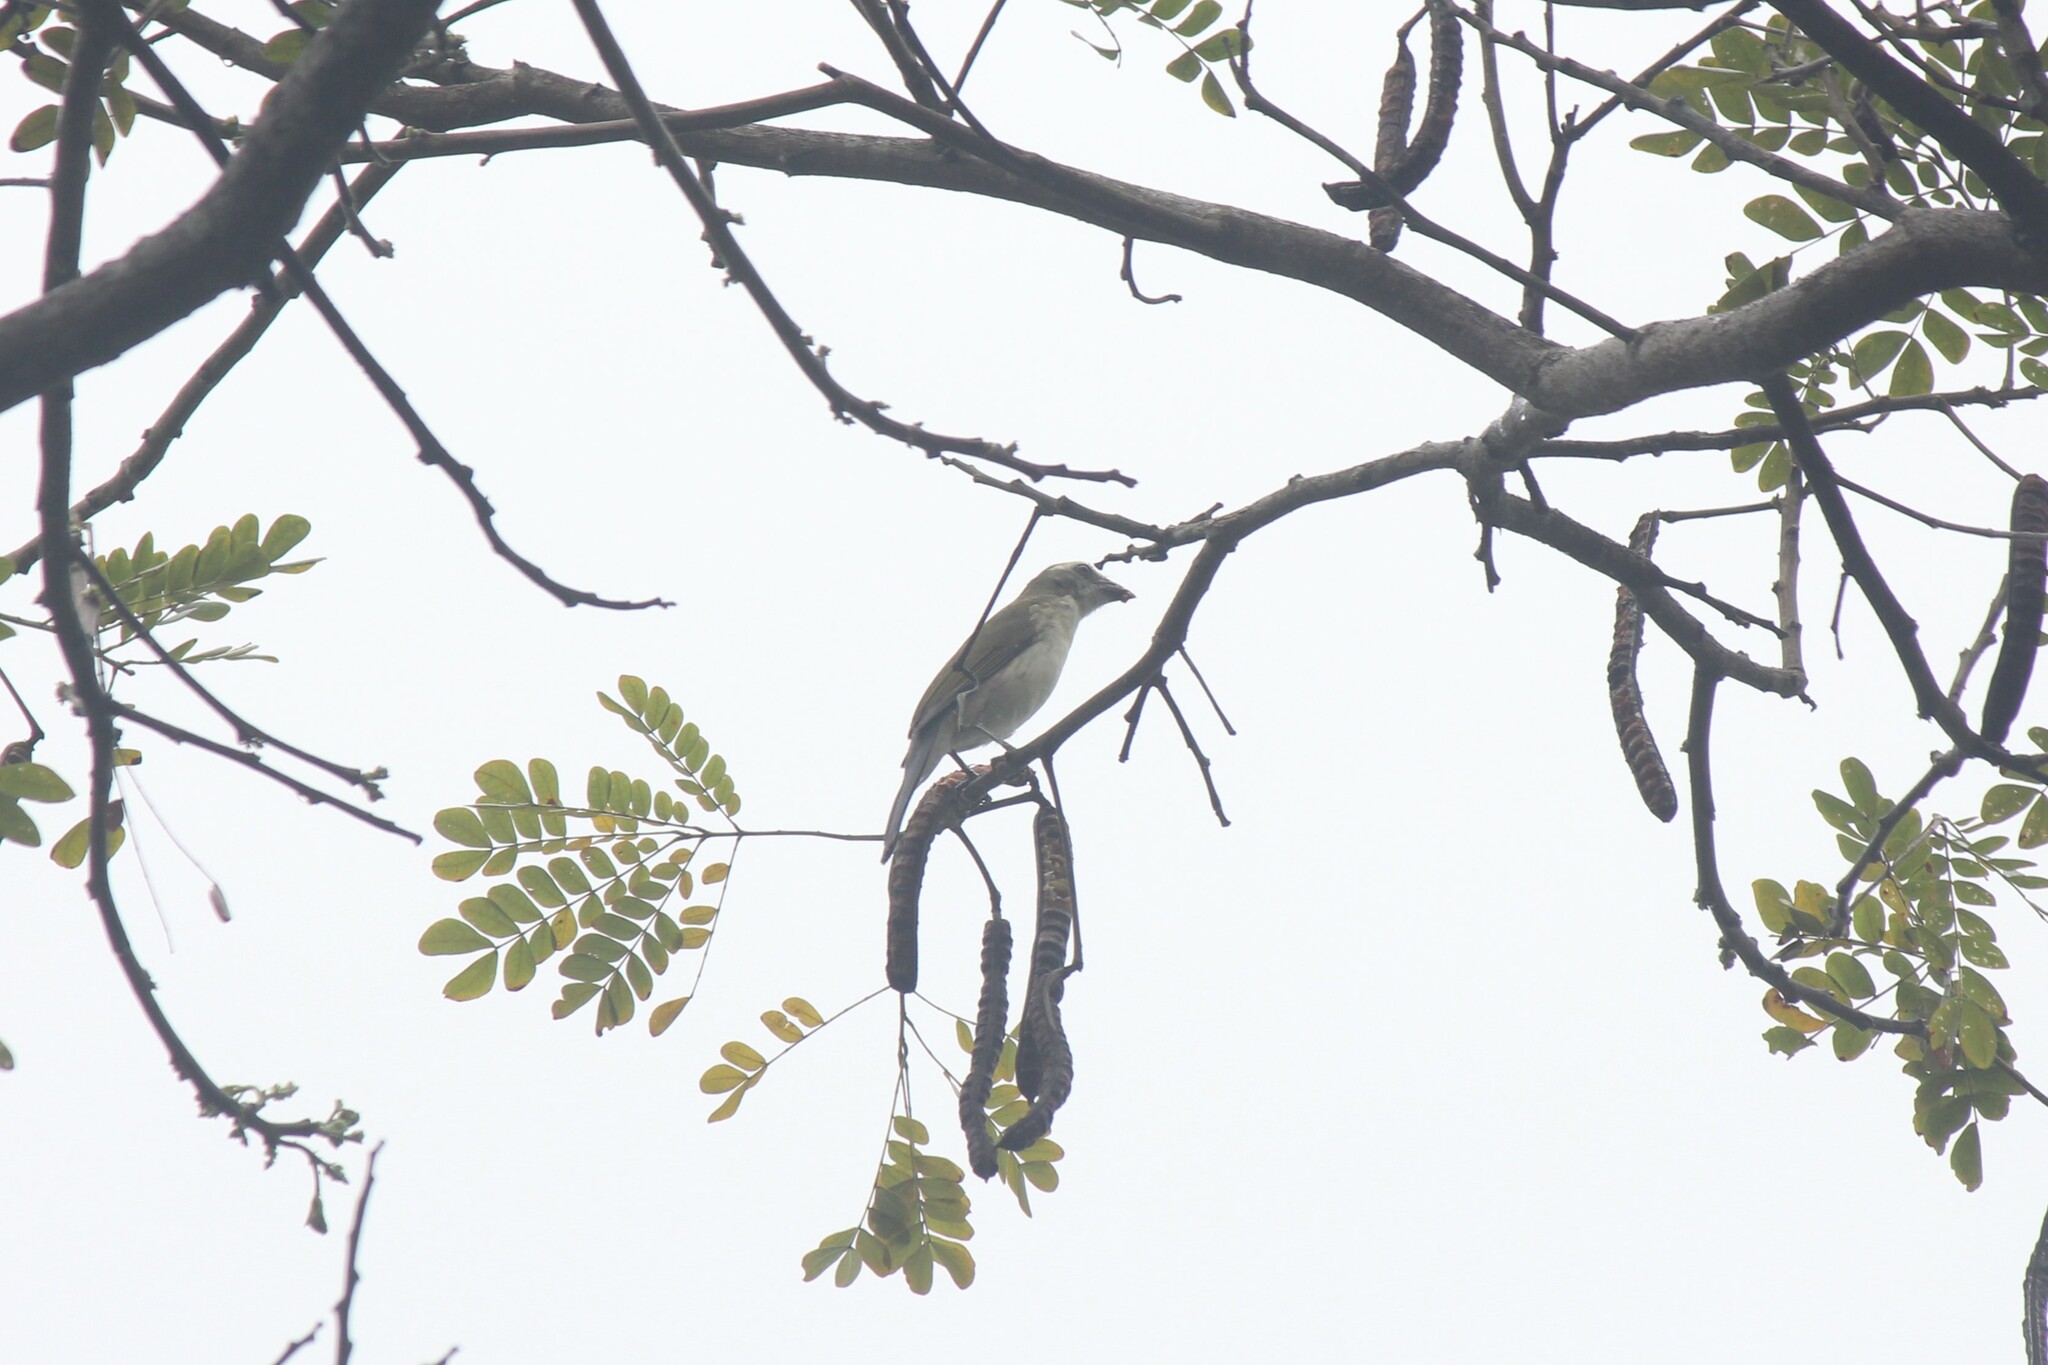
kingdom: Animalia
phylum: Chordata
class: Aves
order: Passeriformes
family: Thraupidae
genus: Saltator
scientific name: Saltator striatipectus
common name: Streaked saltator
